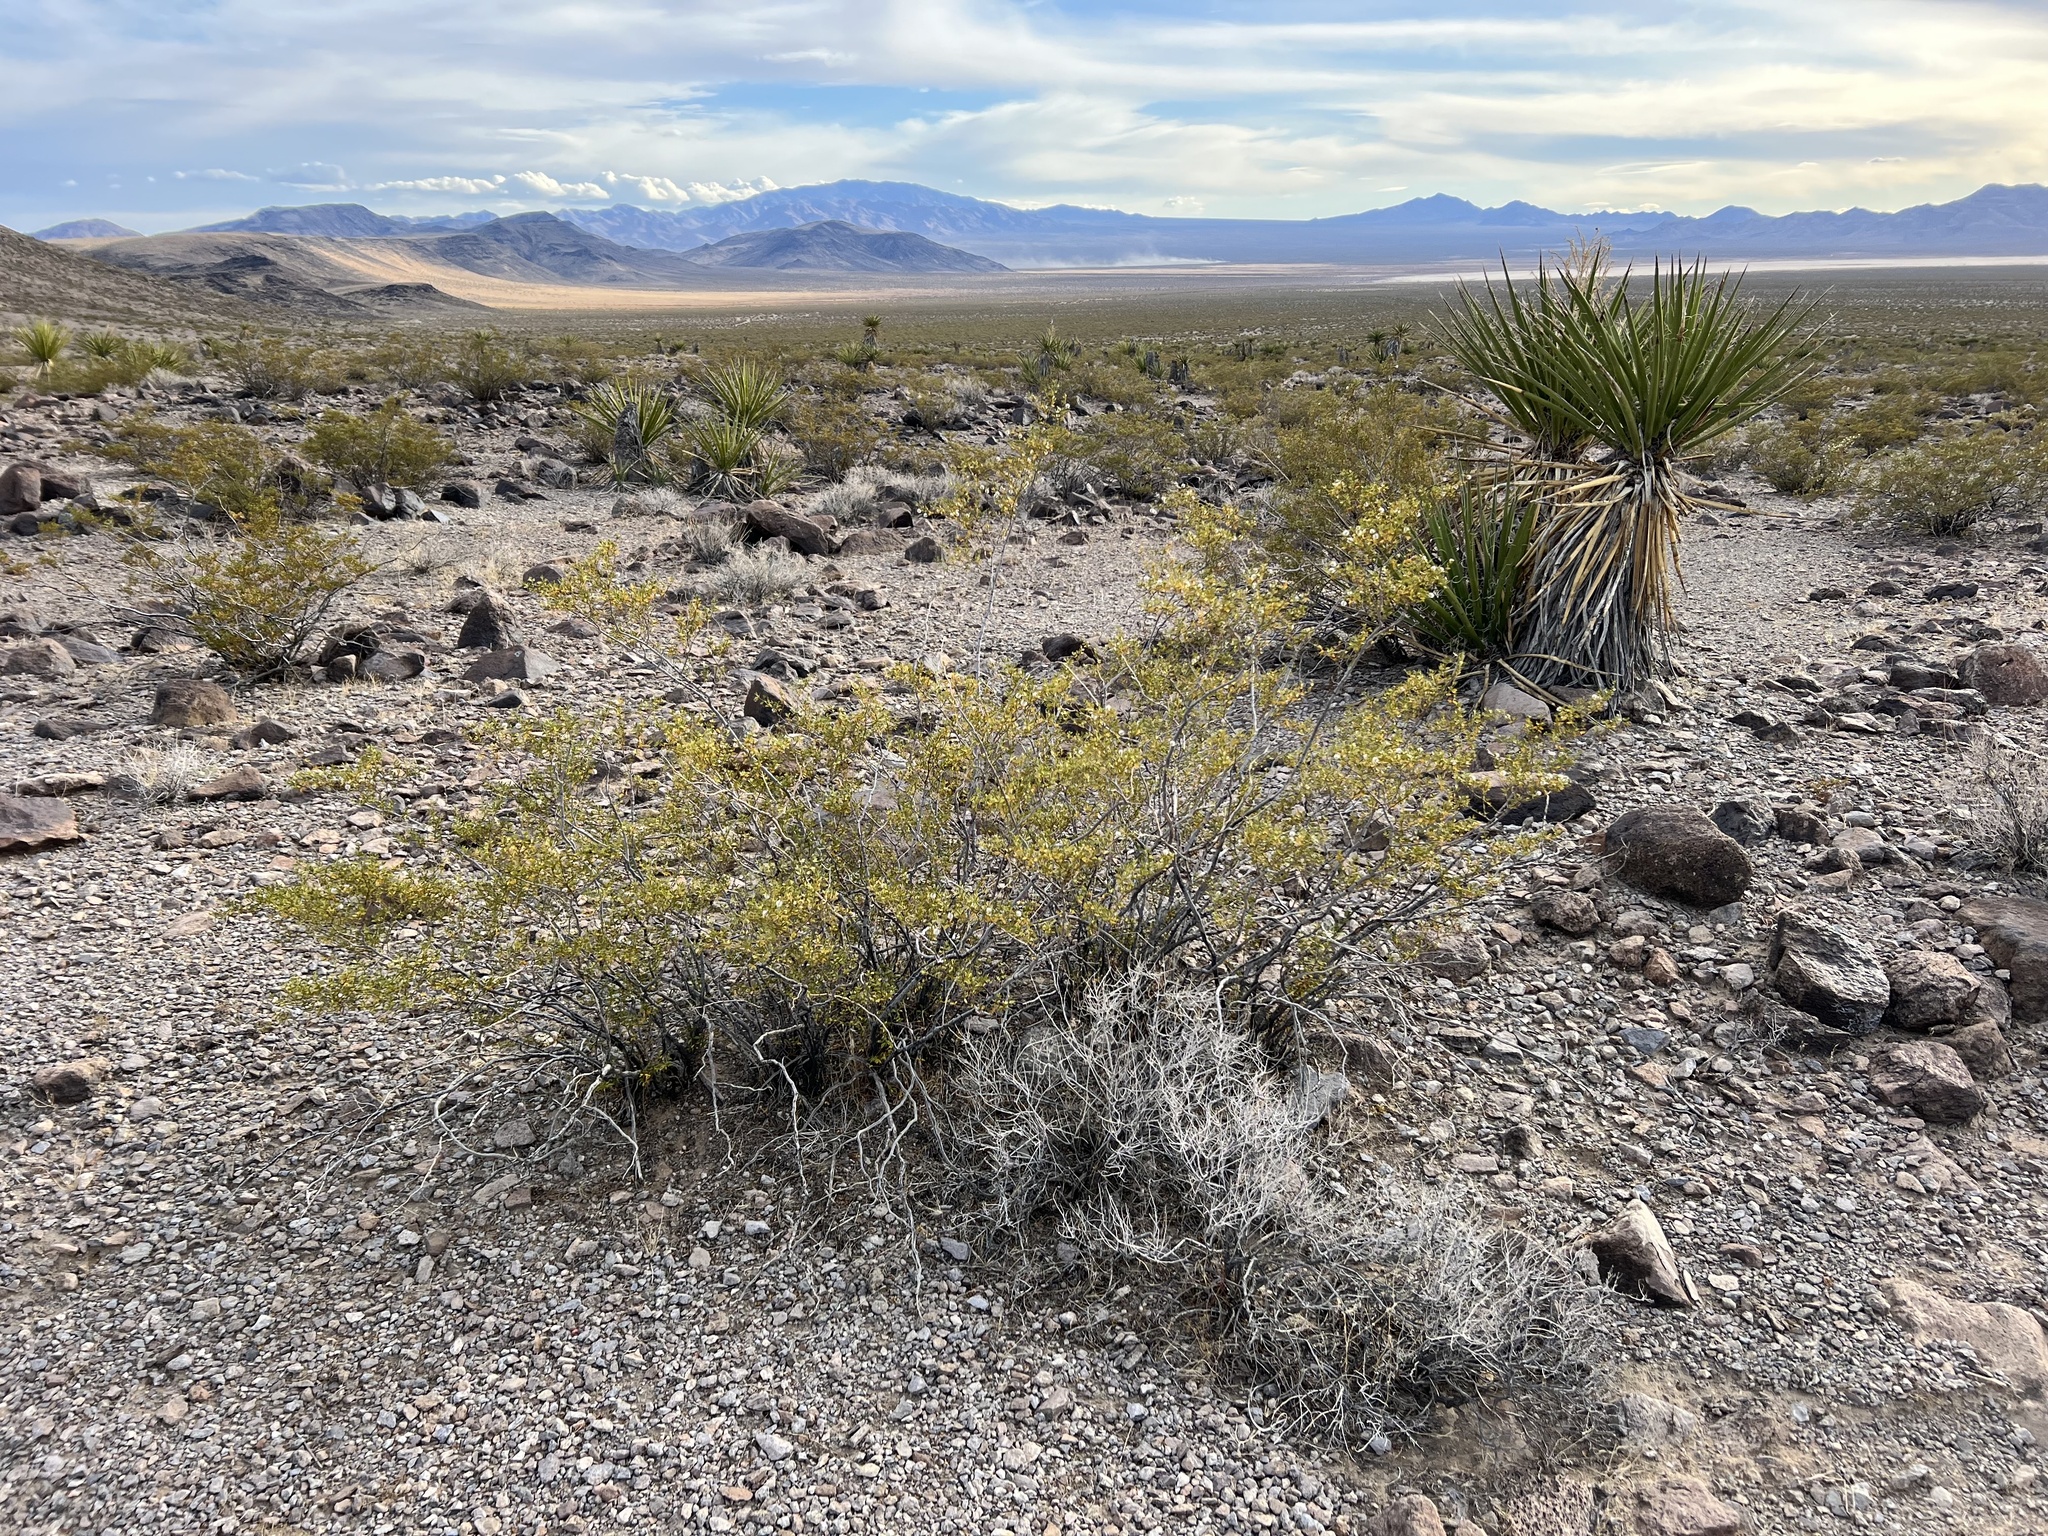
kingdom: Plantae
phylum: Tracheophyta
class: Magnoliopsida
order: Zygophyllales
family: Zygophyllaceae
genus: Larrea
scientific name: Larrea tridentata
